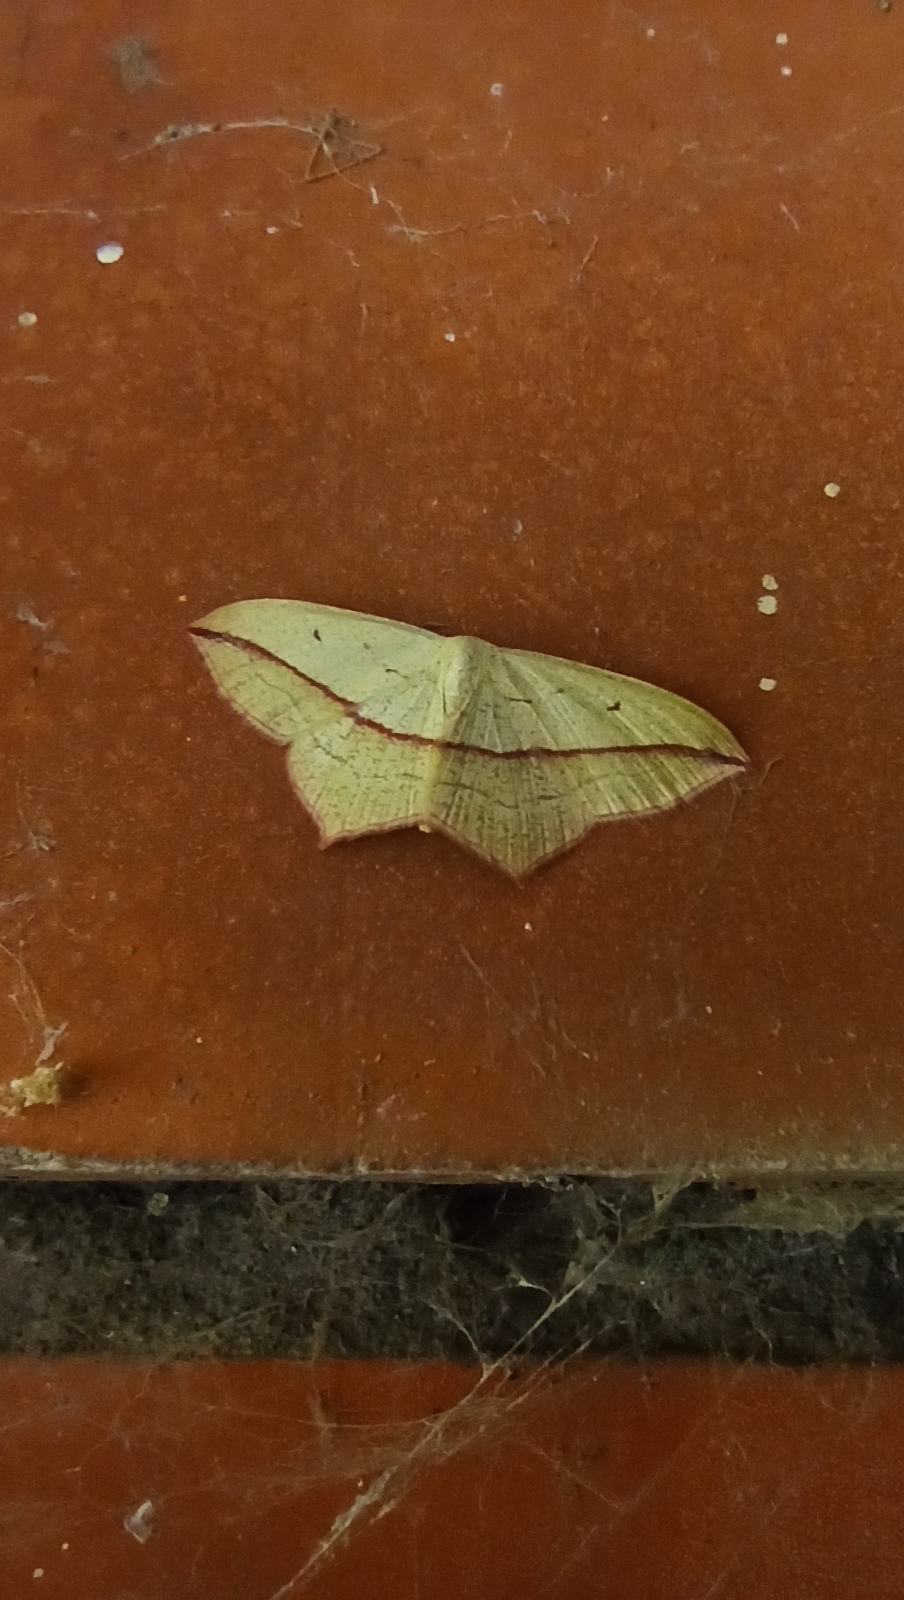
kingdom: Animalia
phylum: Arthropoda
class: Insecta
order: Lepidoptera
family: Geometridae
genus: Timandra
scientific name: Timandra comae
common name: Blood-vein
